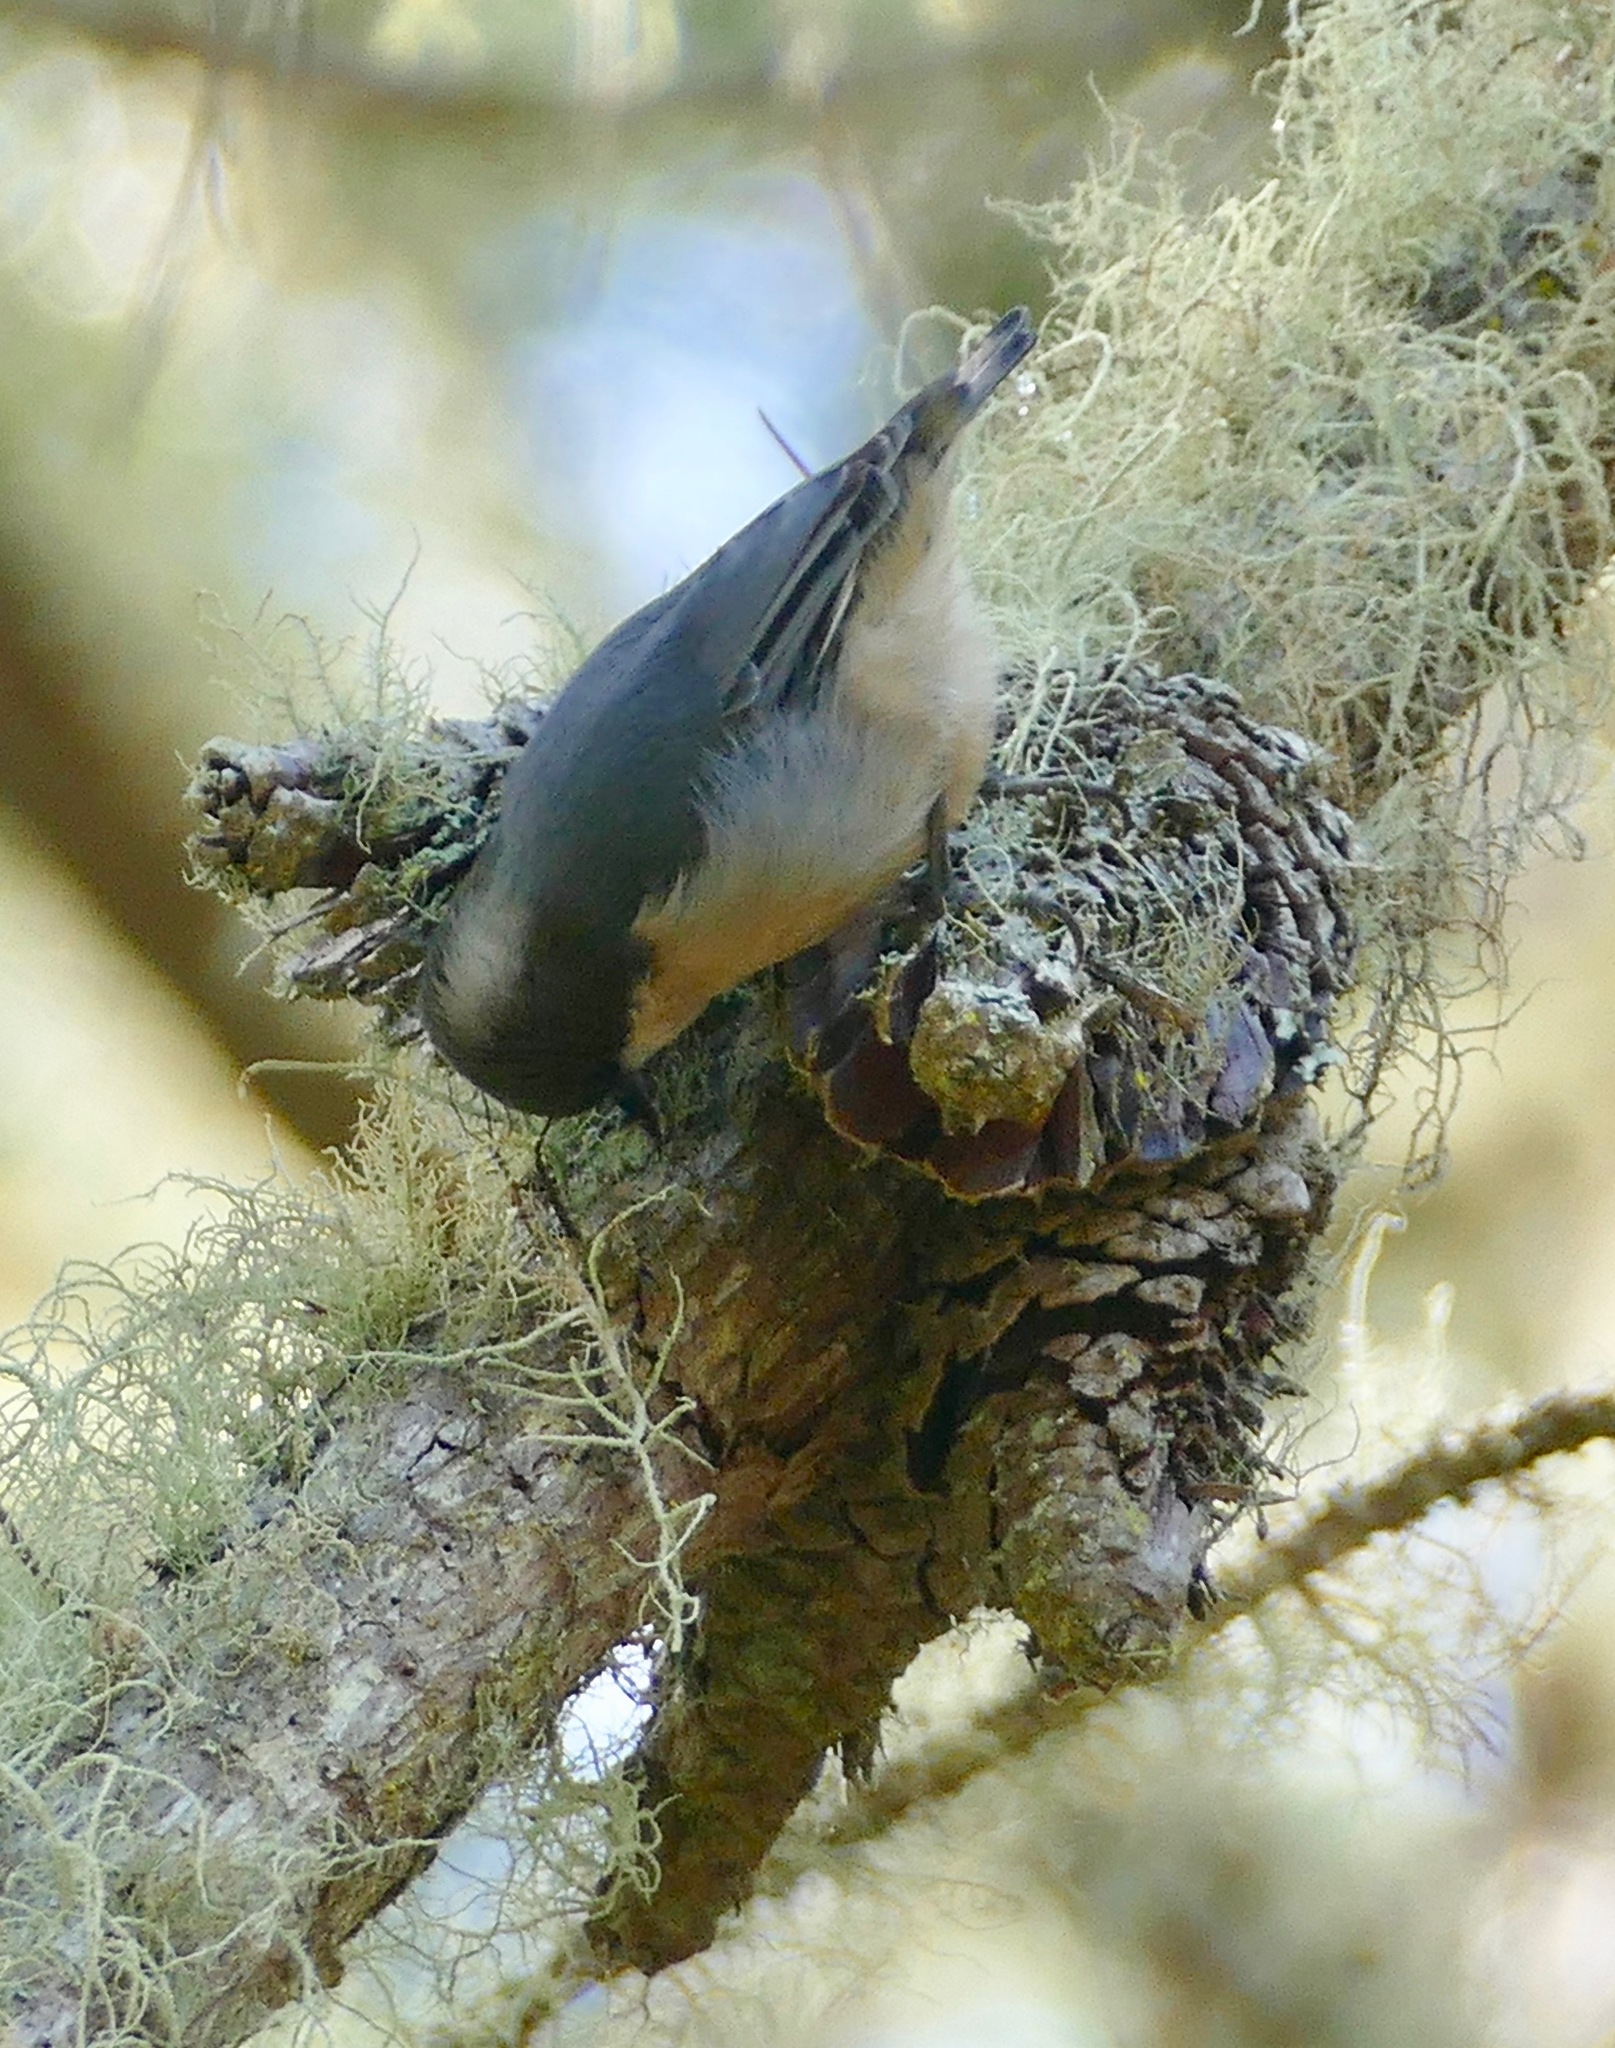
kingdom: Animalia
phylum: Chordata
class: Aves
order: Passeriformes
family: Sittidae
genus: Sitta
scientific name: Sitta pygmaea
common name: Pygmy nuthatch
